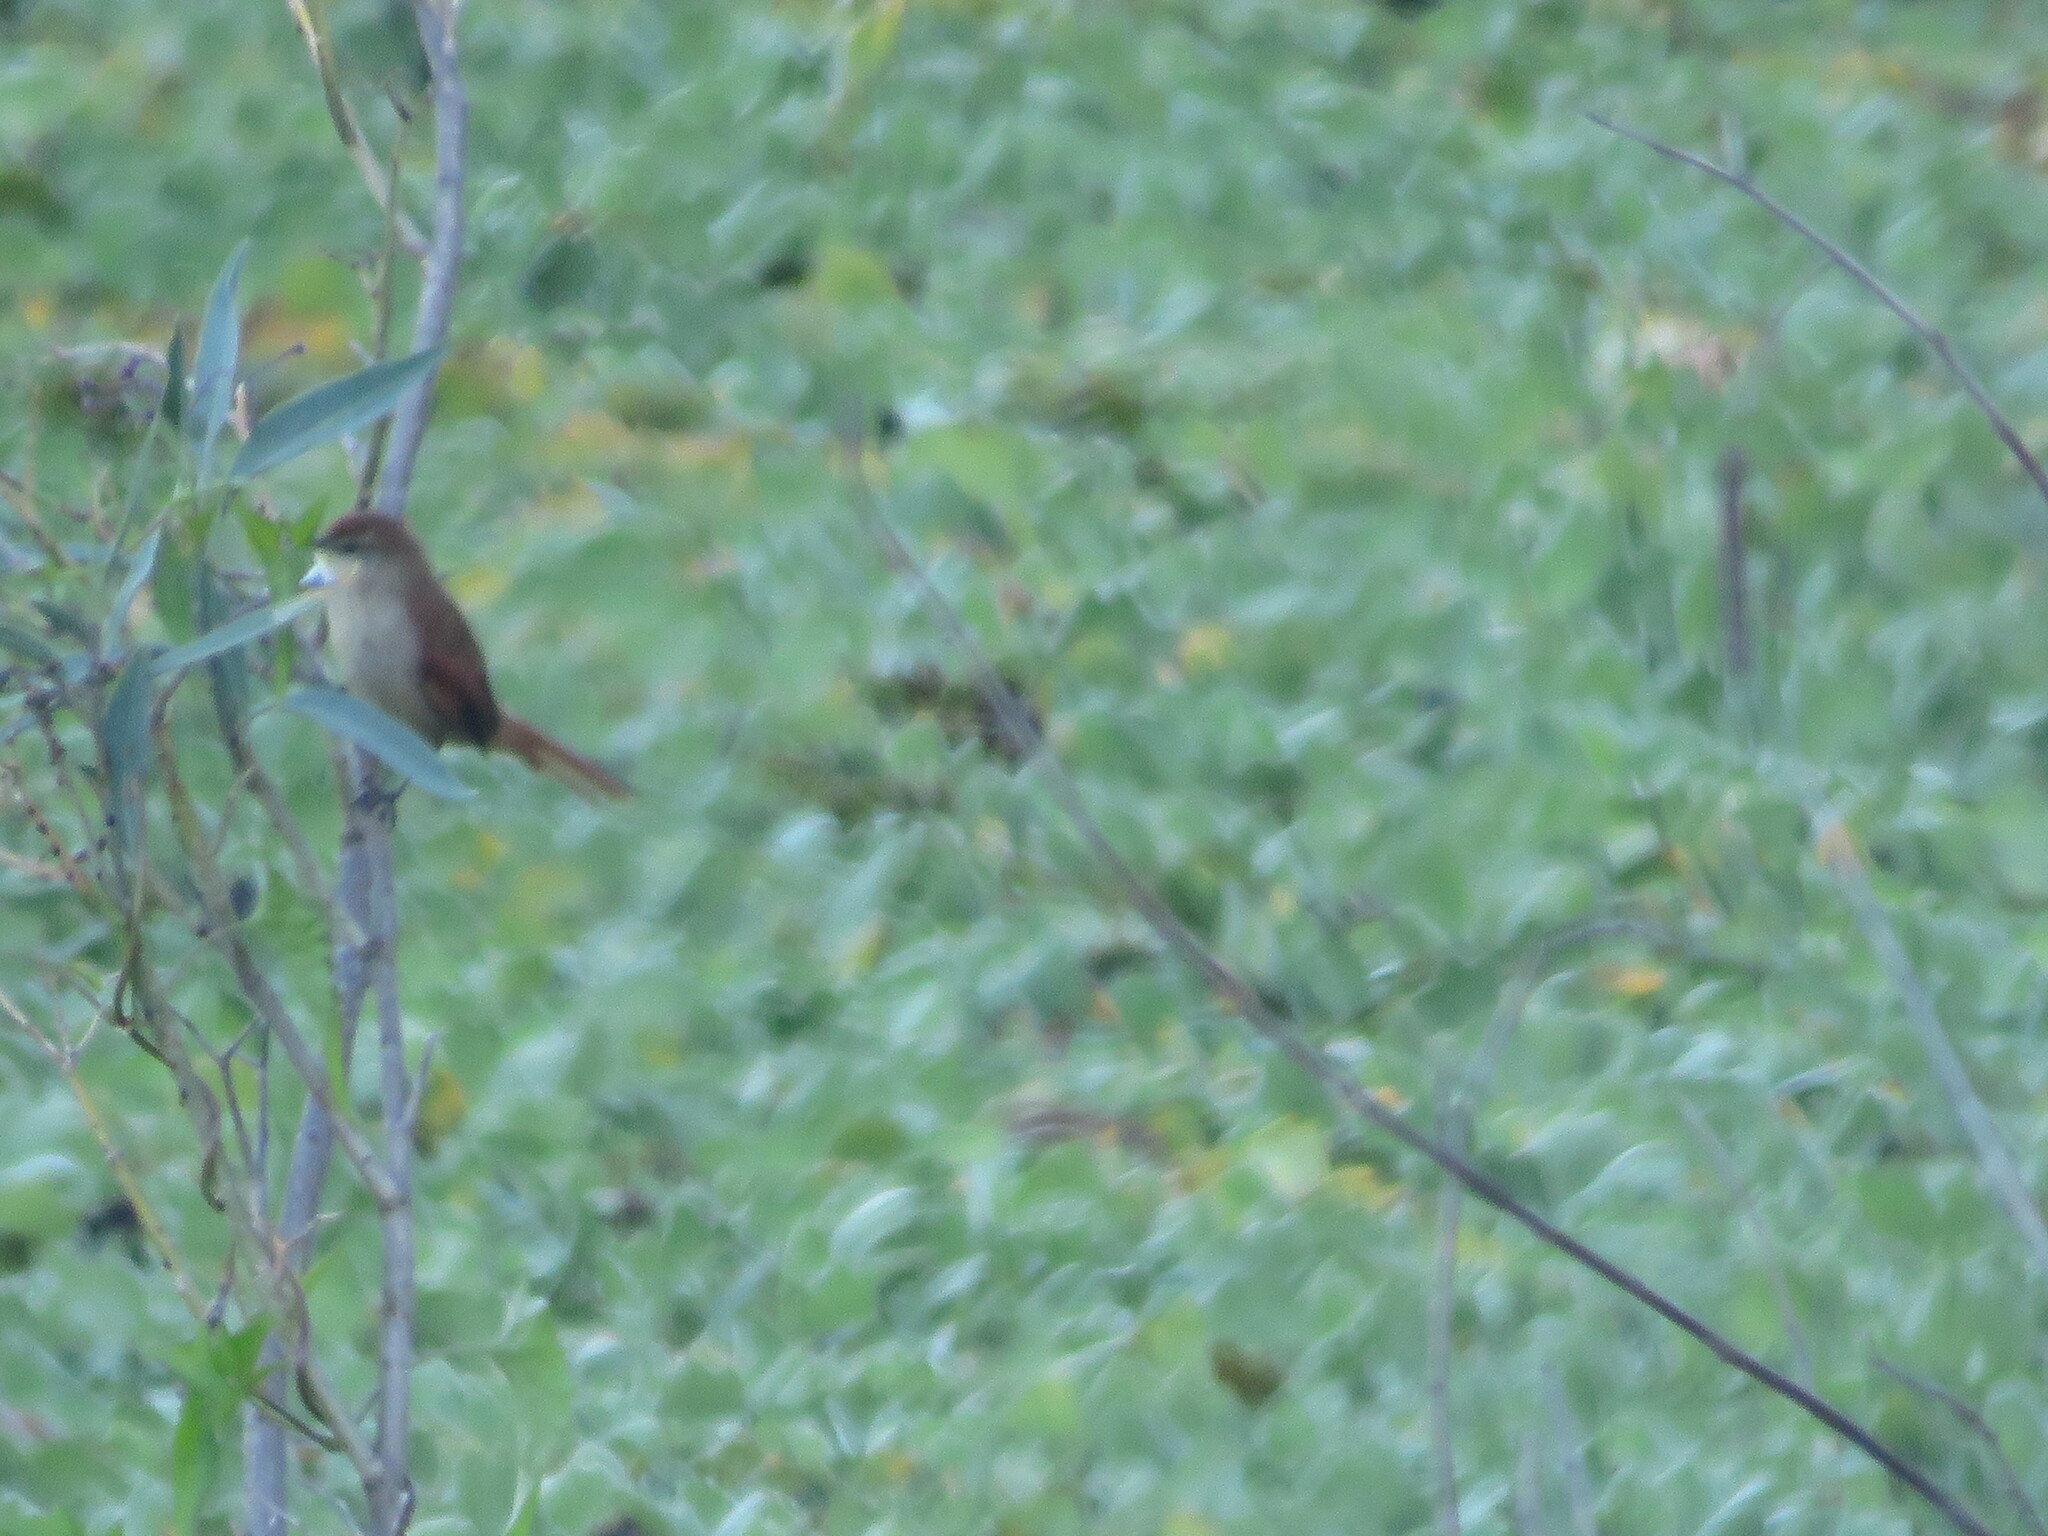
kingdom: Animalia
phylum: Chordata
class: Aves
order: Passeriformes
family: Furnariidae
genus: Certhiaxis
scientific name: Certhiaxis cinnamomeus
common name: Yellow-chinned spinetail
